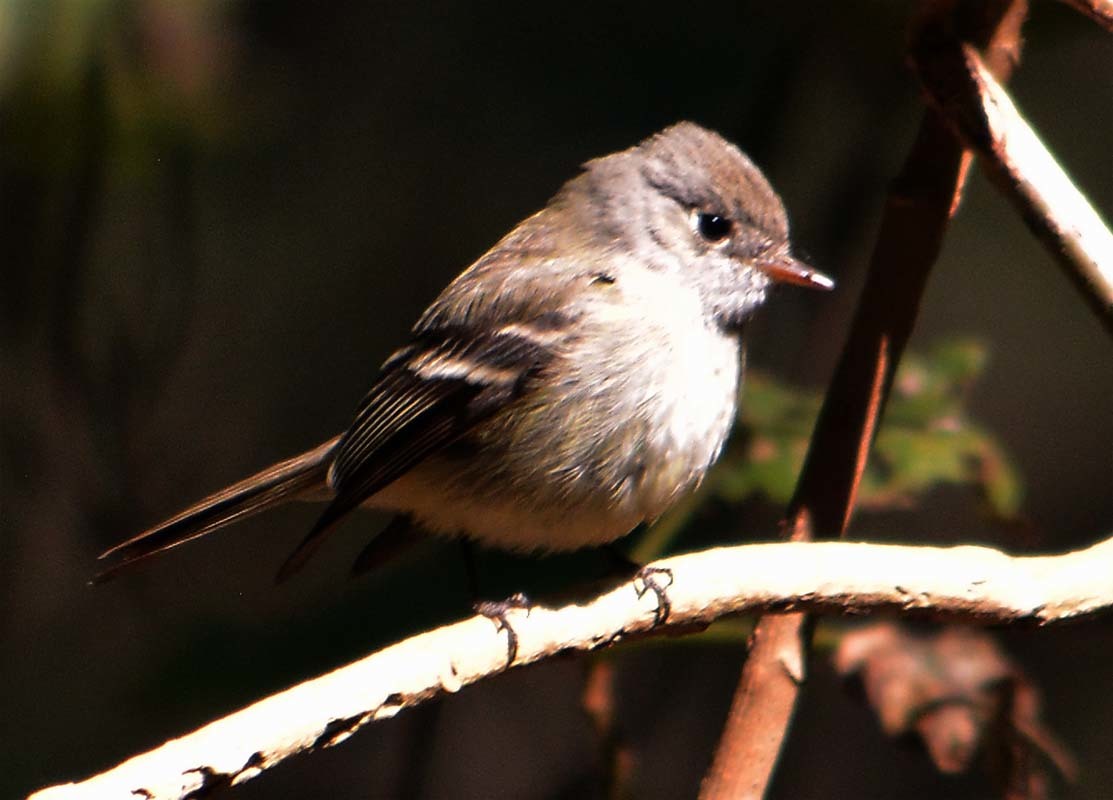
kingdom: Animalia
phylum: Chordata
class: Aves
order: Passeriformes
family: Tyrannidae
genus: Empidonax
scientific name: Empidonax hammondii
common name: Hammond's flycatcher
